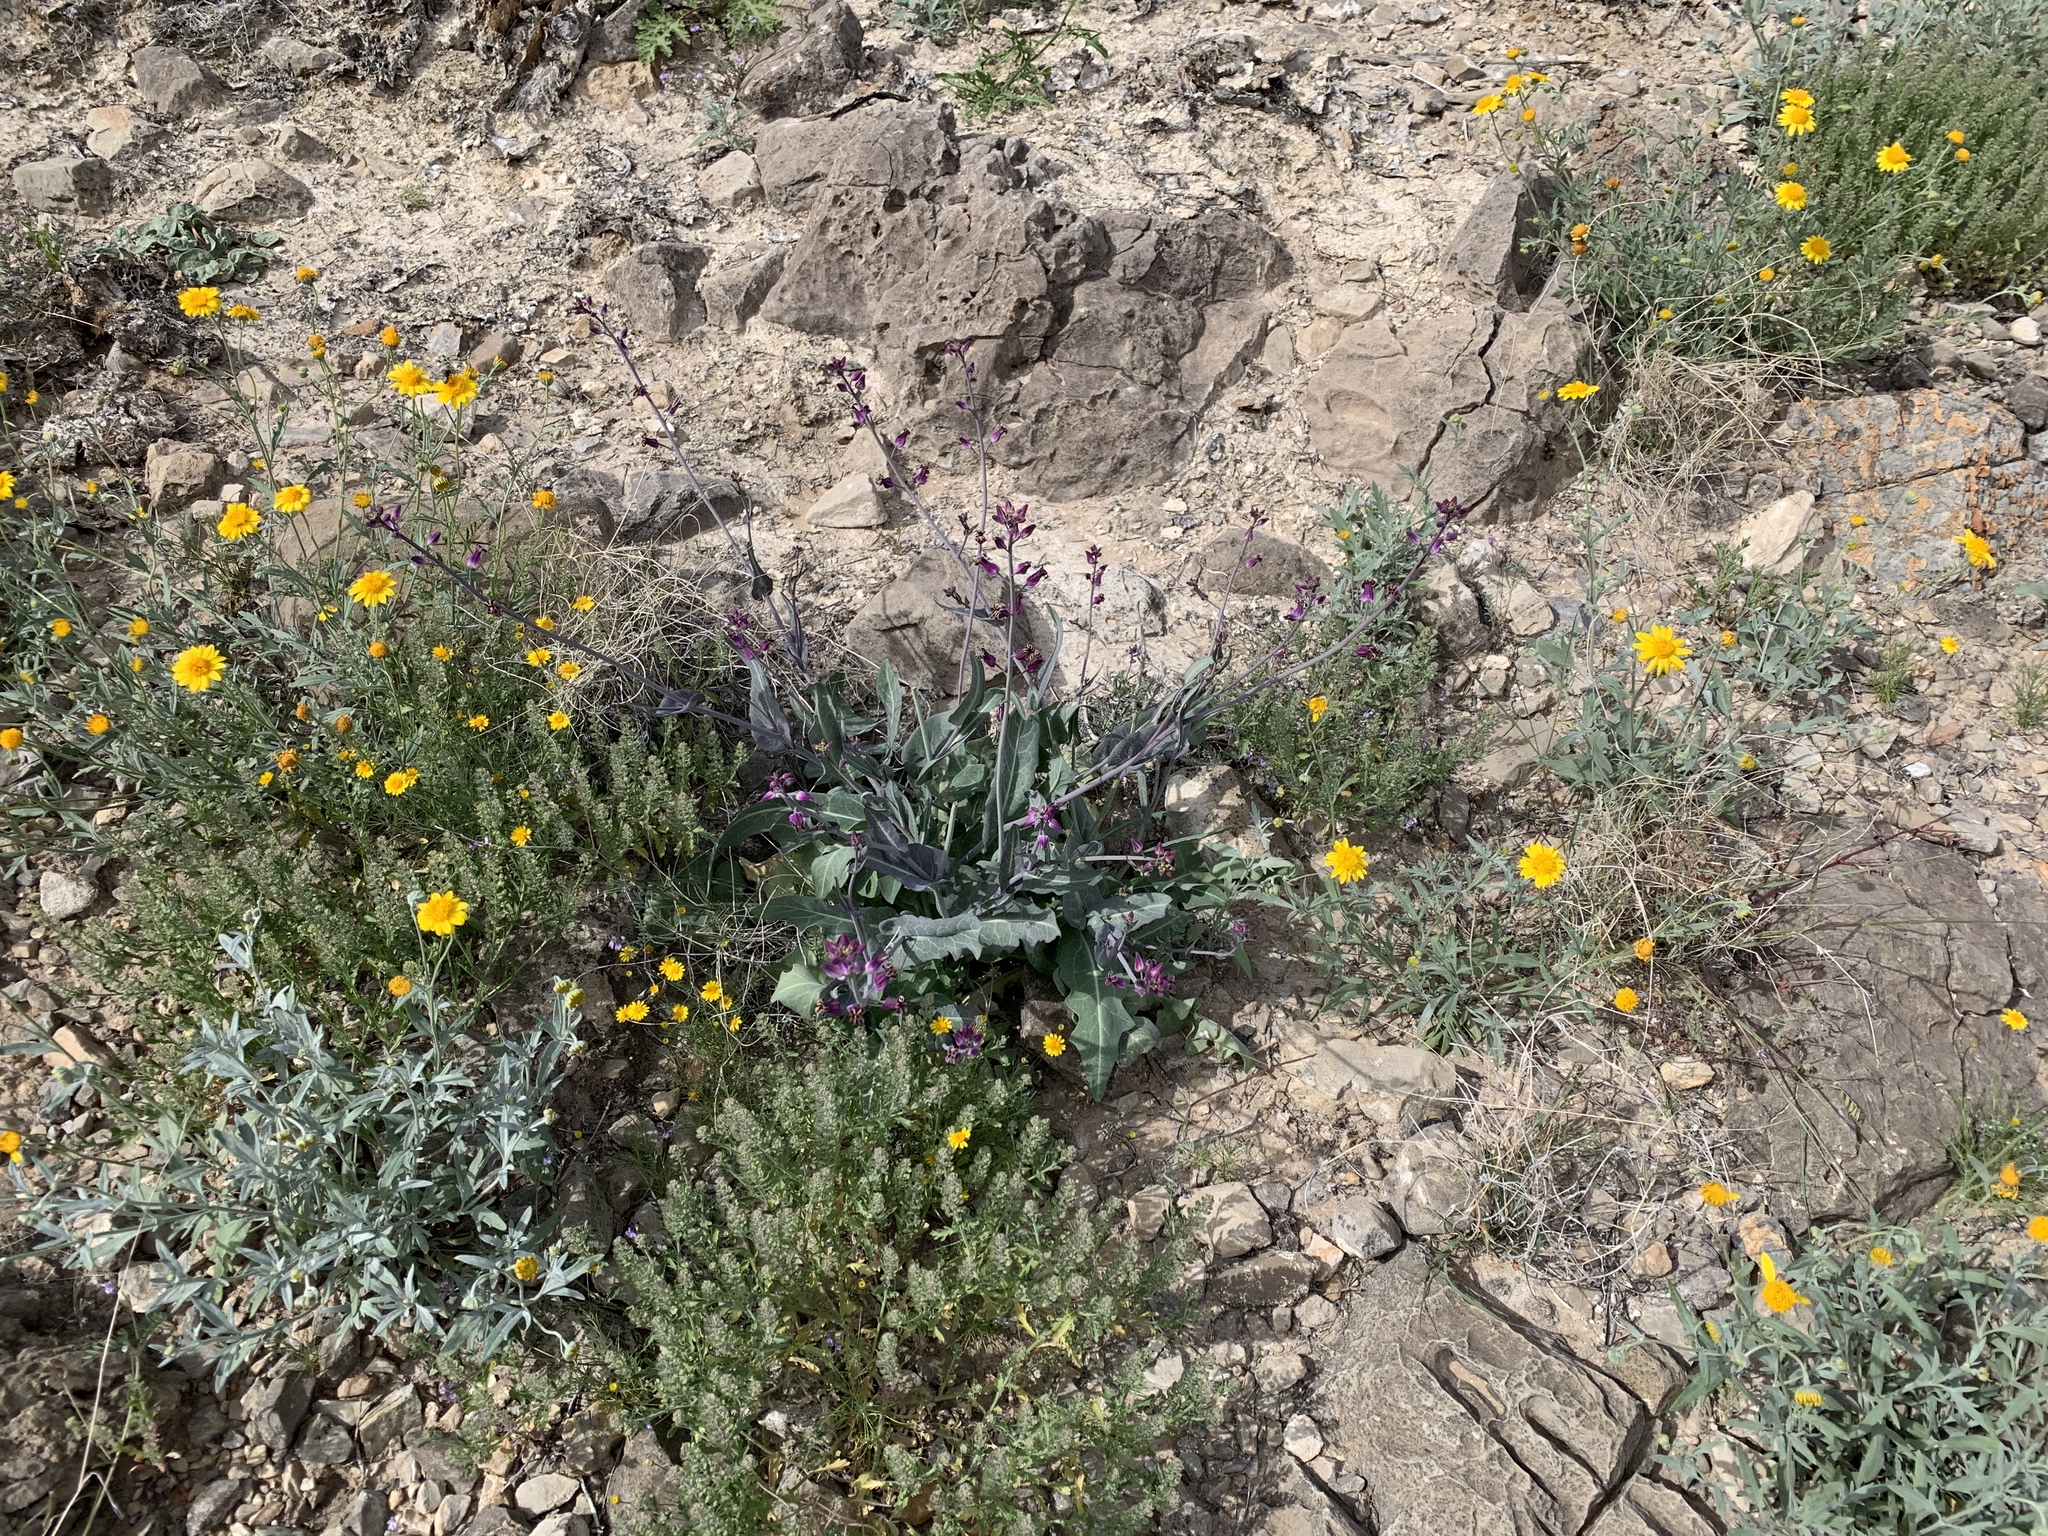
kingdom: Plantae
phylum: Tracheophyta
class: Magnoliopsida
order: Brassicales
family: Brassicaceae
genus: Streptanthus
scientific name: Streptanthus carinatus
